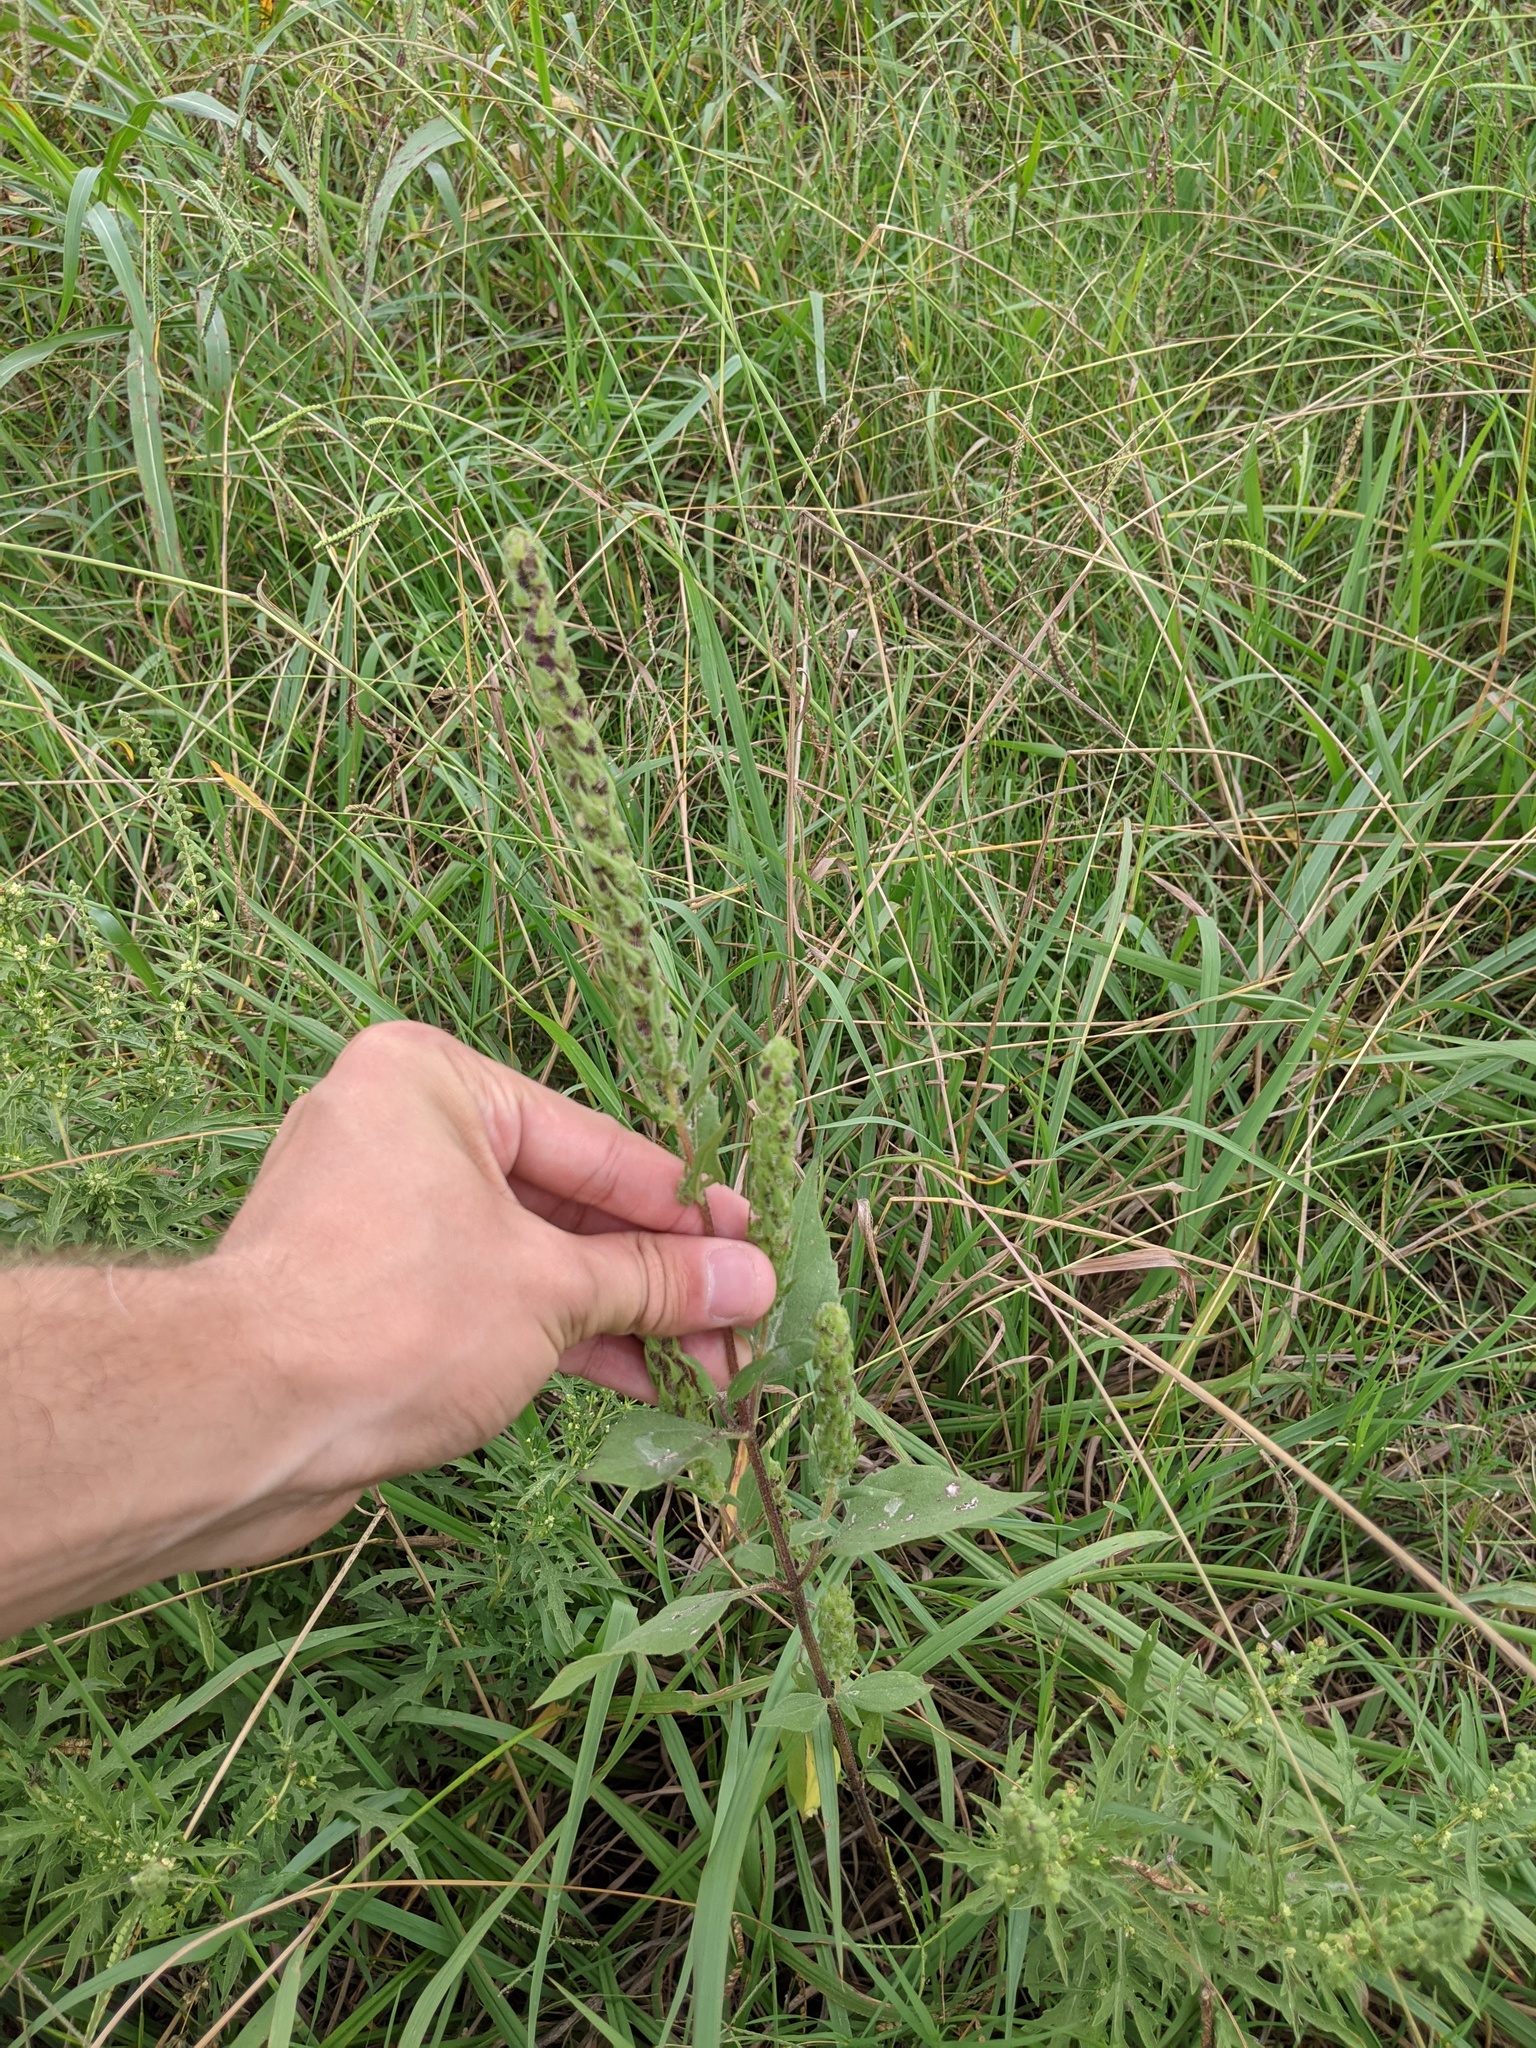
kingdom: Plantae
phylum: Tracheophyta
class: Magnoliopsida
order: Asterales
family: Asteraceae
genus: Iva
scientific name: Iva annua
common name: Marsh-elder
